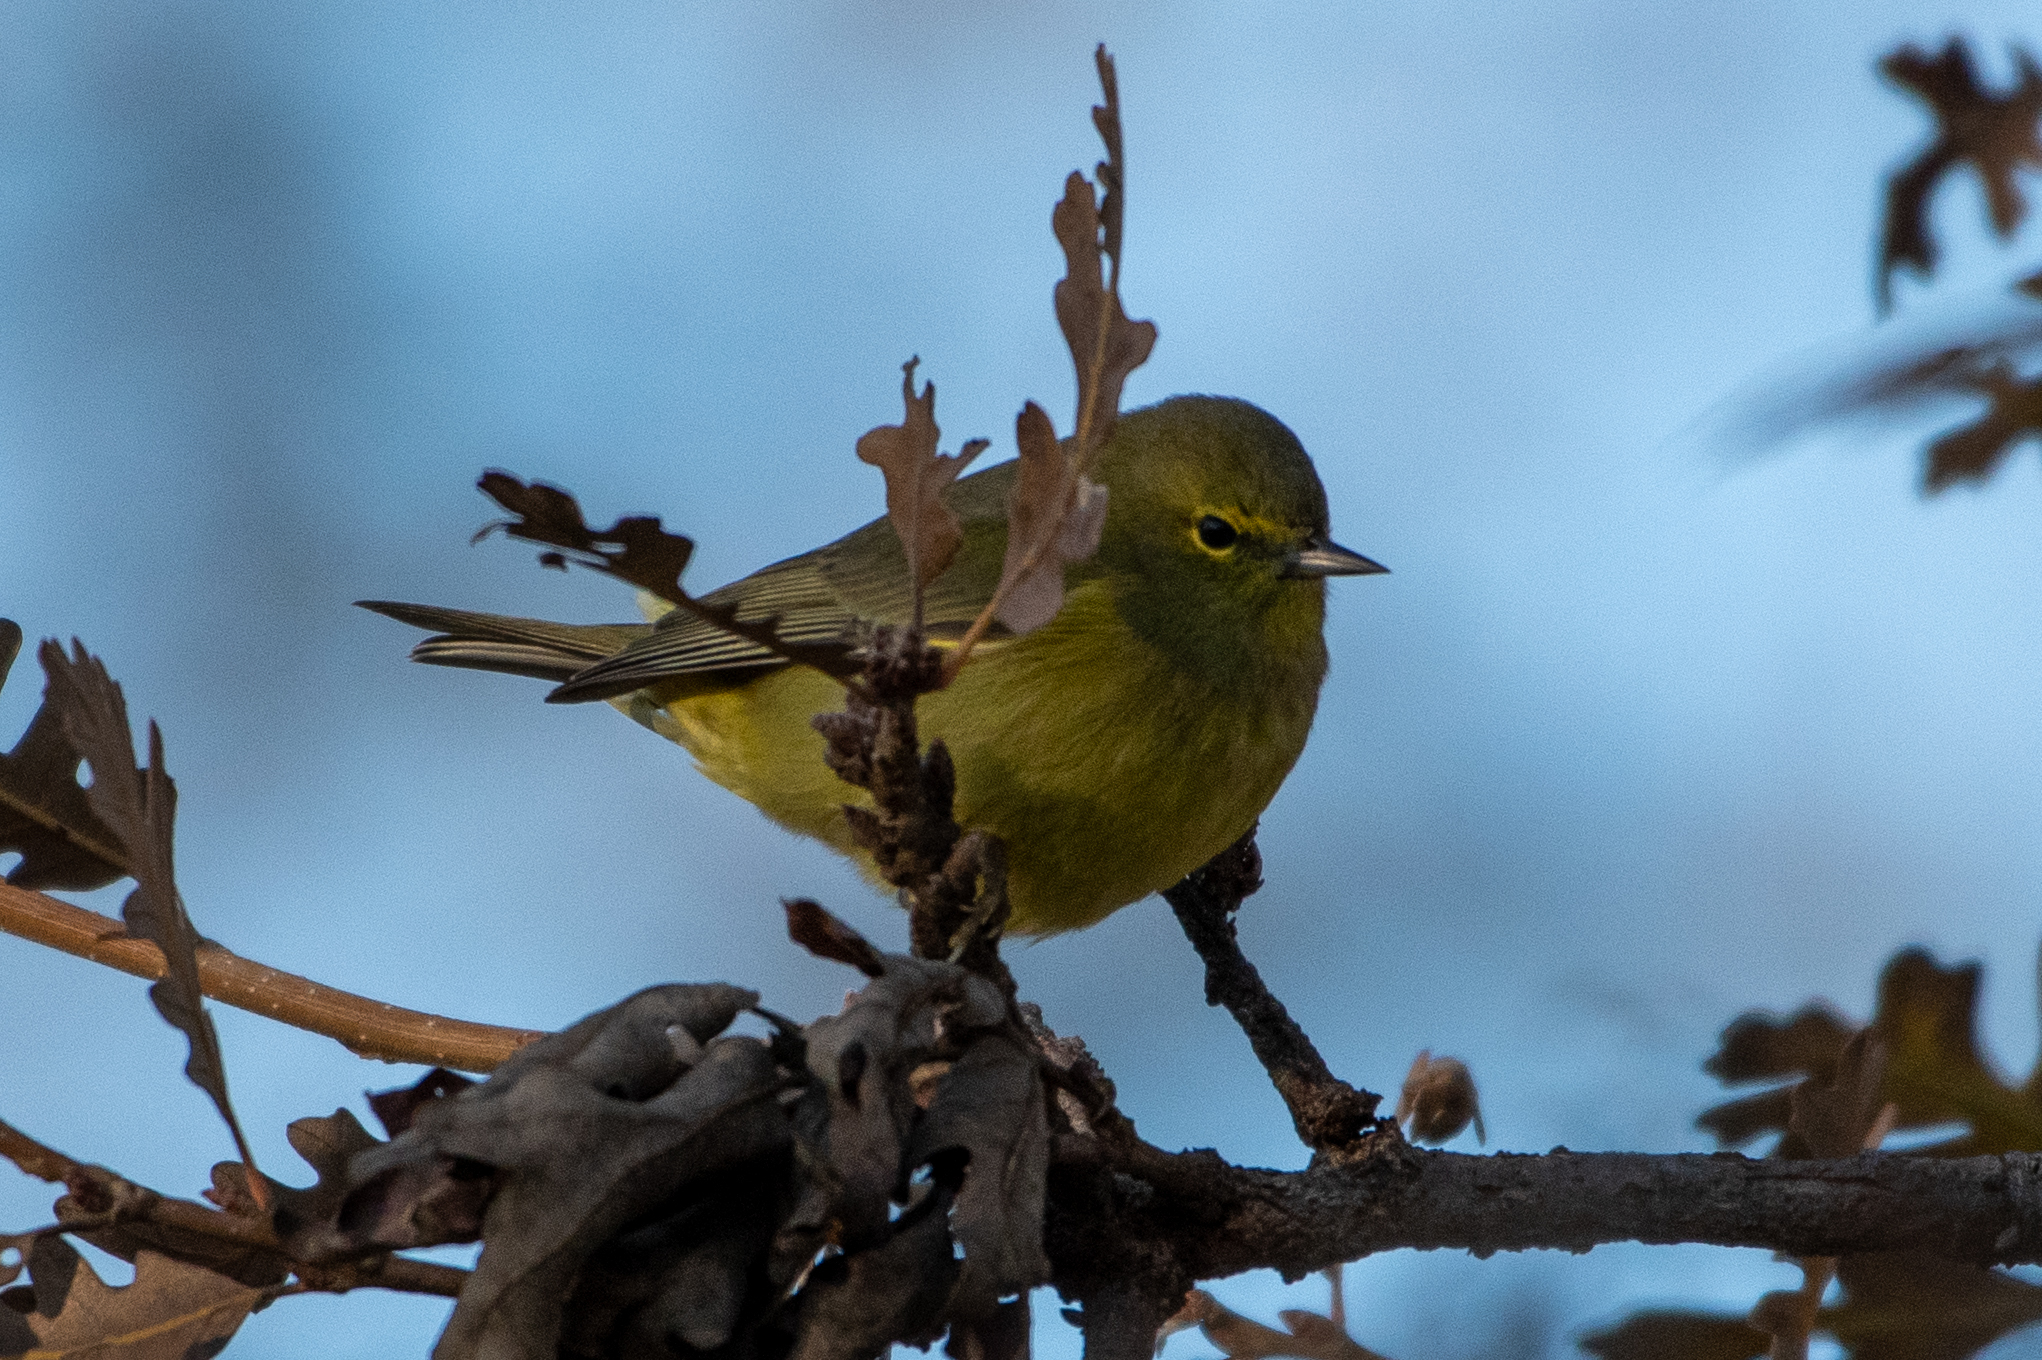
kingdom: Animalia
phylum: Chordata
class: Aves
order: Passeriformes
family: Parulidae
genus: Leiothlypis
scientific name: Leiothlypis celata
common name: Orange-crowned warbler
